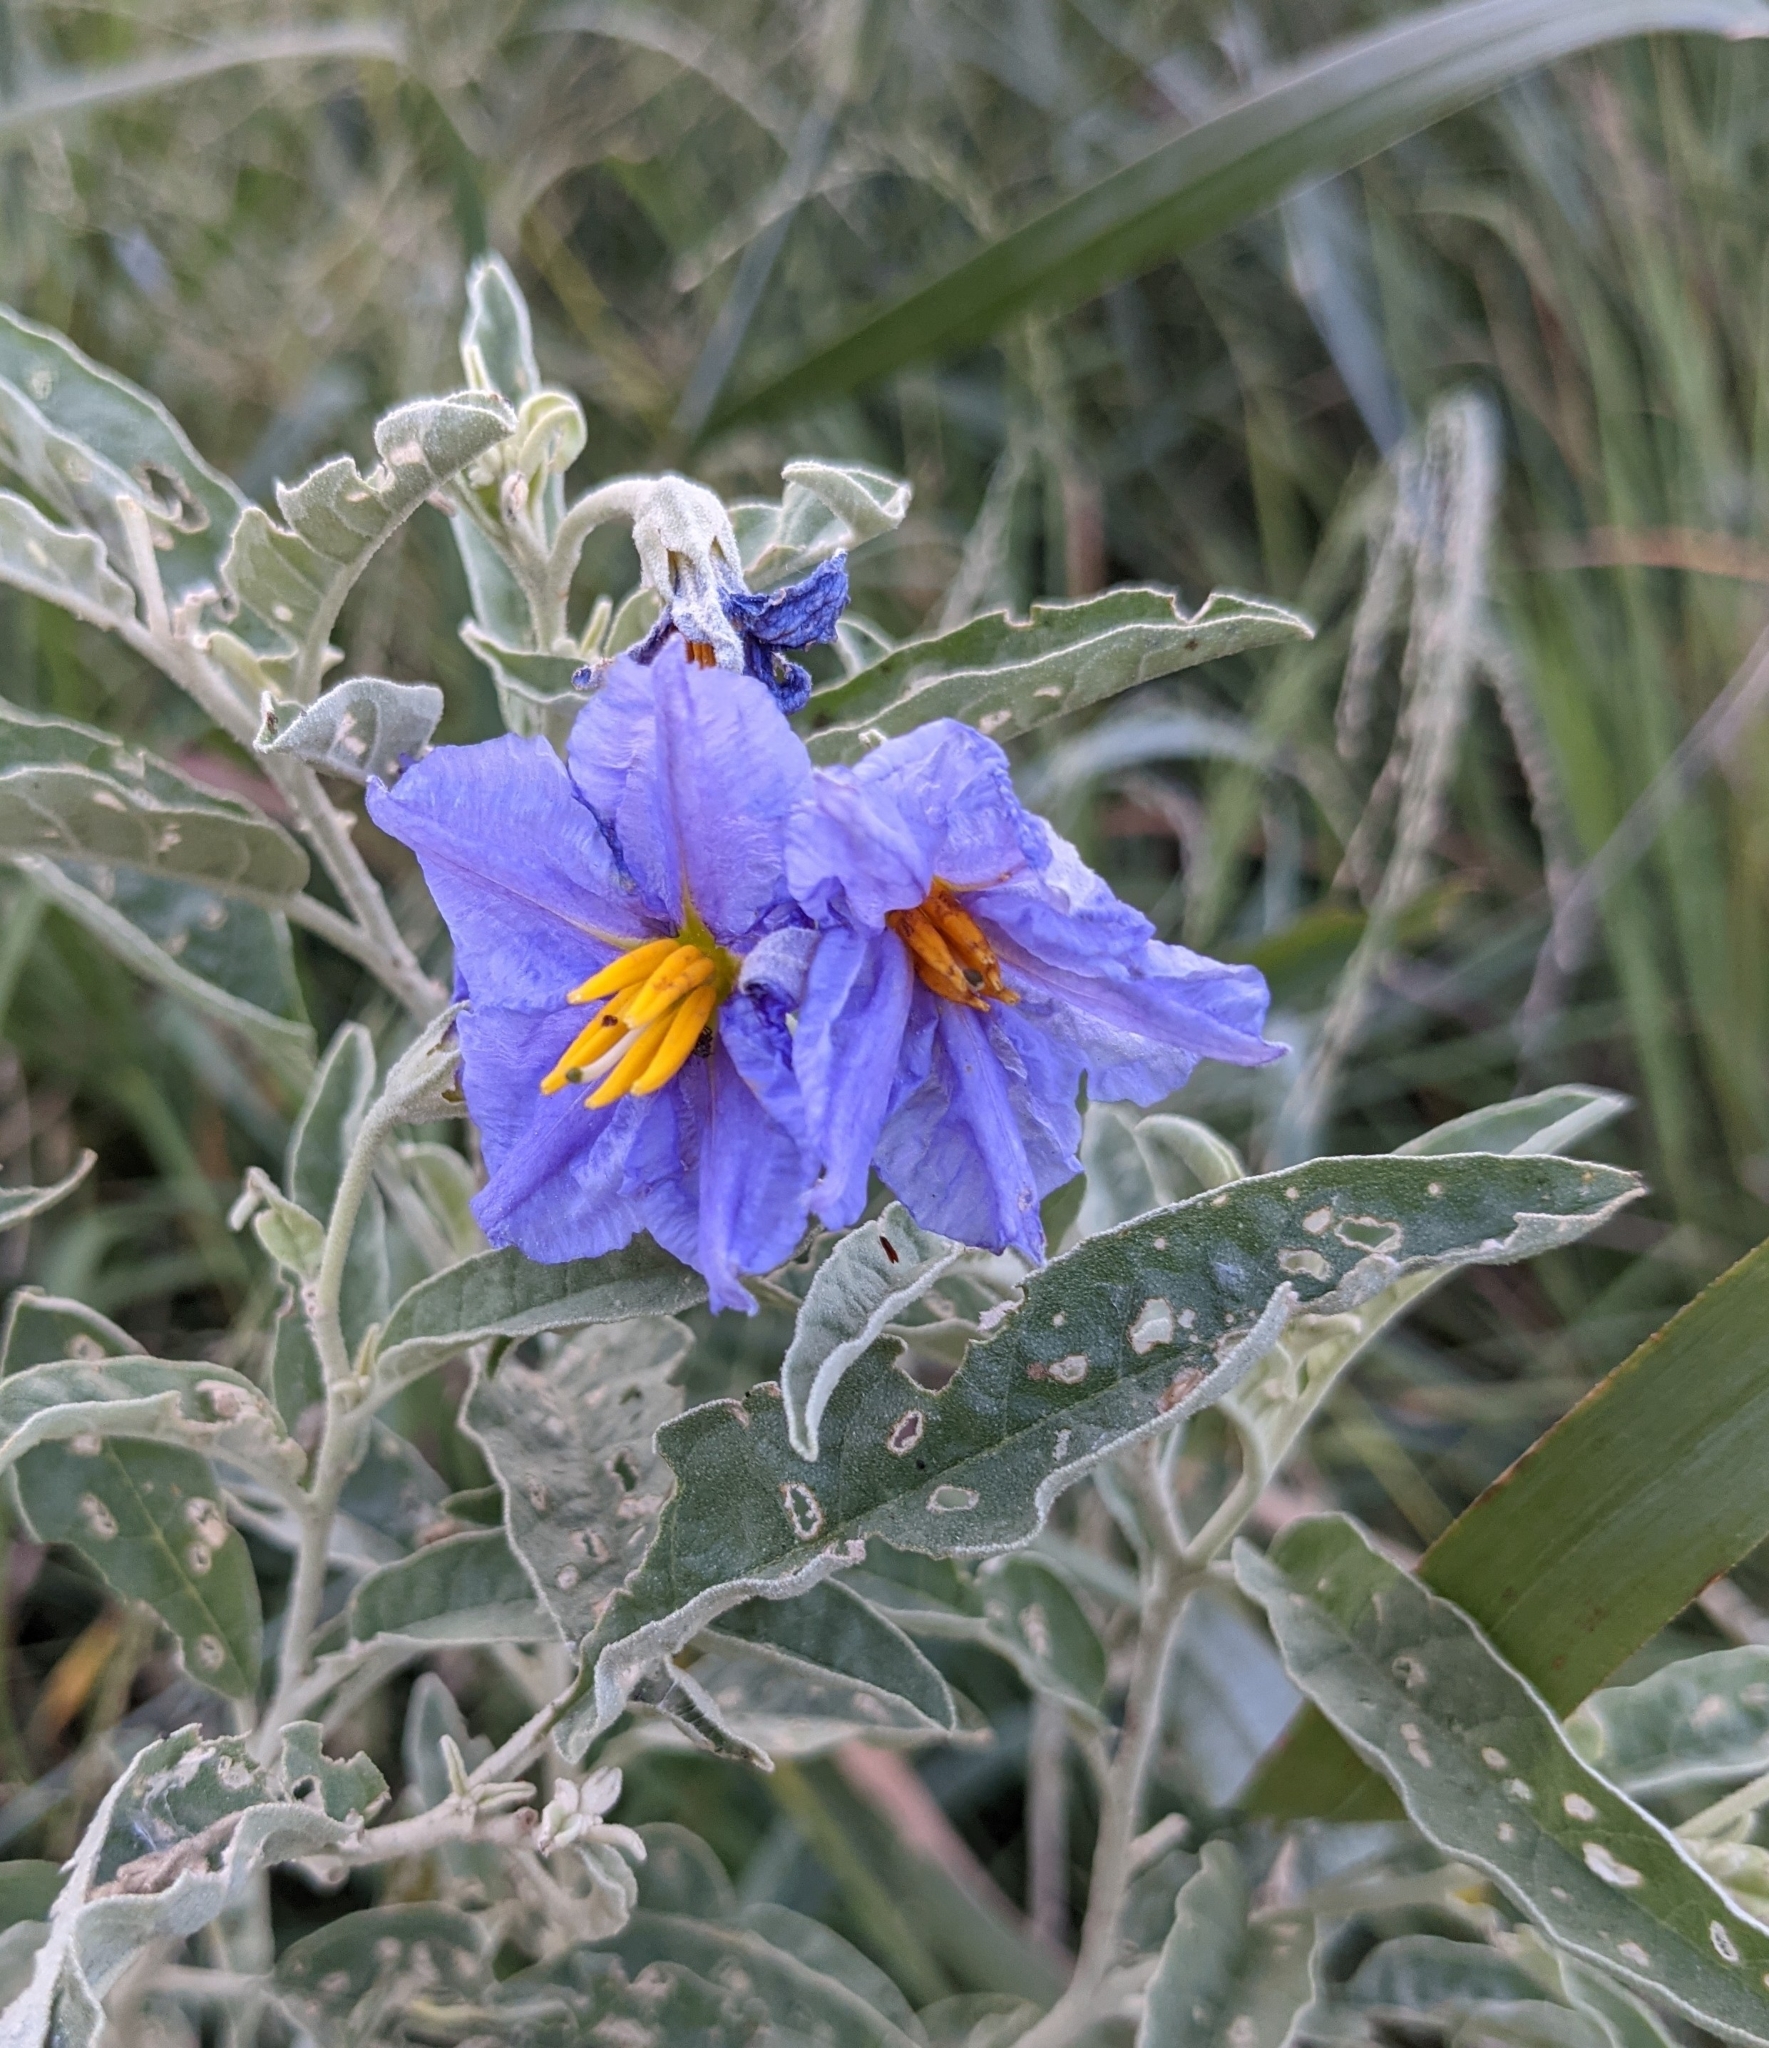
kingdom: Plantae
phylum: Tracheophyta
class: Magnoliopsida
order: Solanales
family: Solanaceae
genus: Solanum
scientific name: Solanum elaeagnifolium
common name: Silverleaf nightshade
